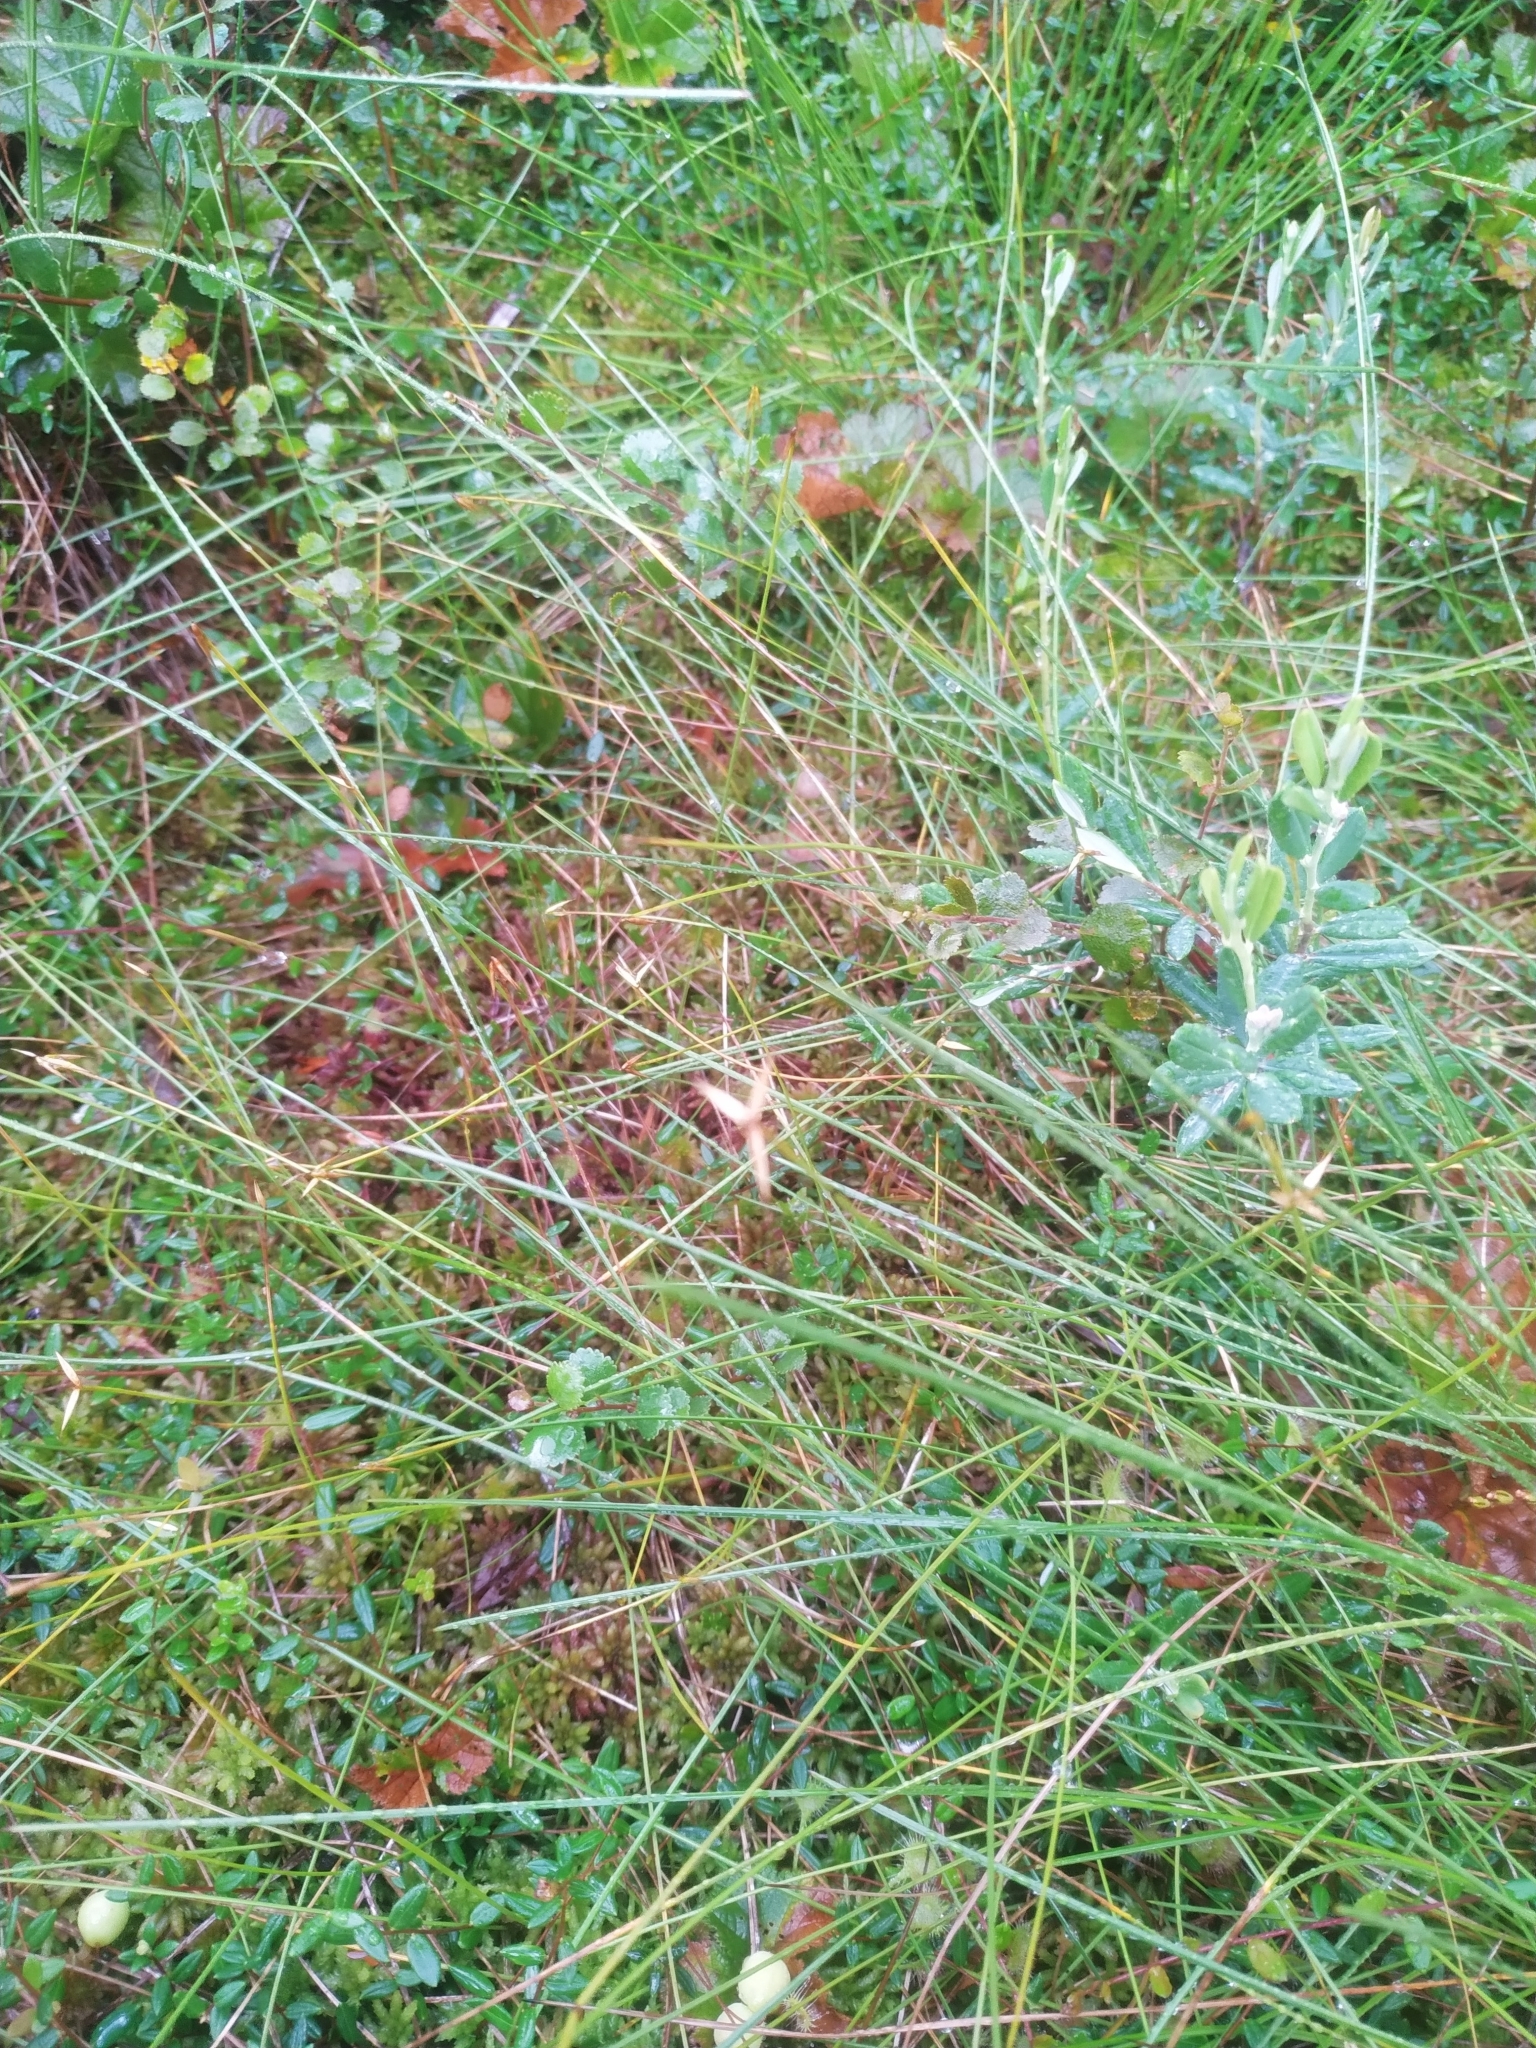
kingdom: Plantae
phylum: Tracheophyta
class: Liliopsida
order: Poales
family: Cyperaceae
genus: Carex
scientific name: Carex pauciflora
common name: Few-flowered sedge
